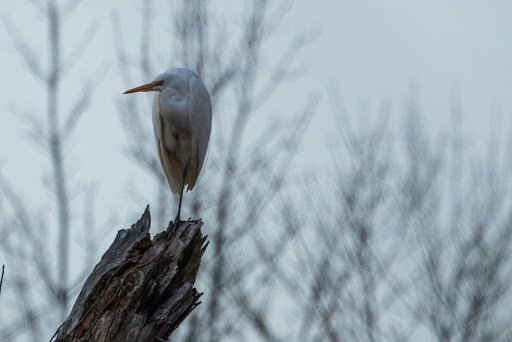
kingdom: Animalia
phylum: Chordata
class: Aves
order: Pelecaniformes
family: Ardeidae
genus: Ardea
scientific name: Ardea alba
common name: Great egret
